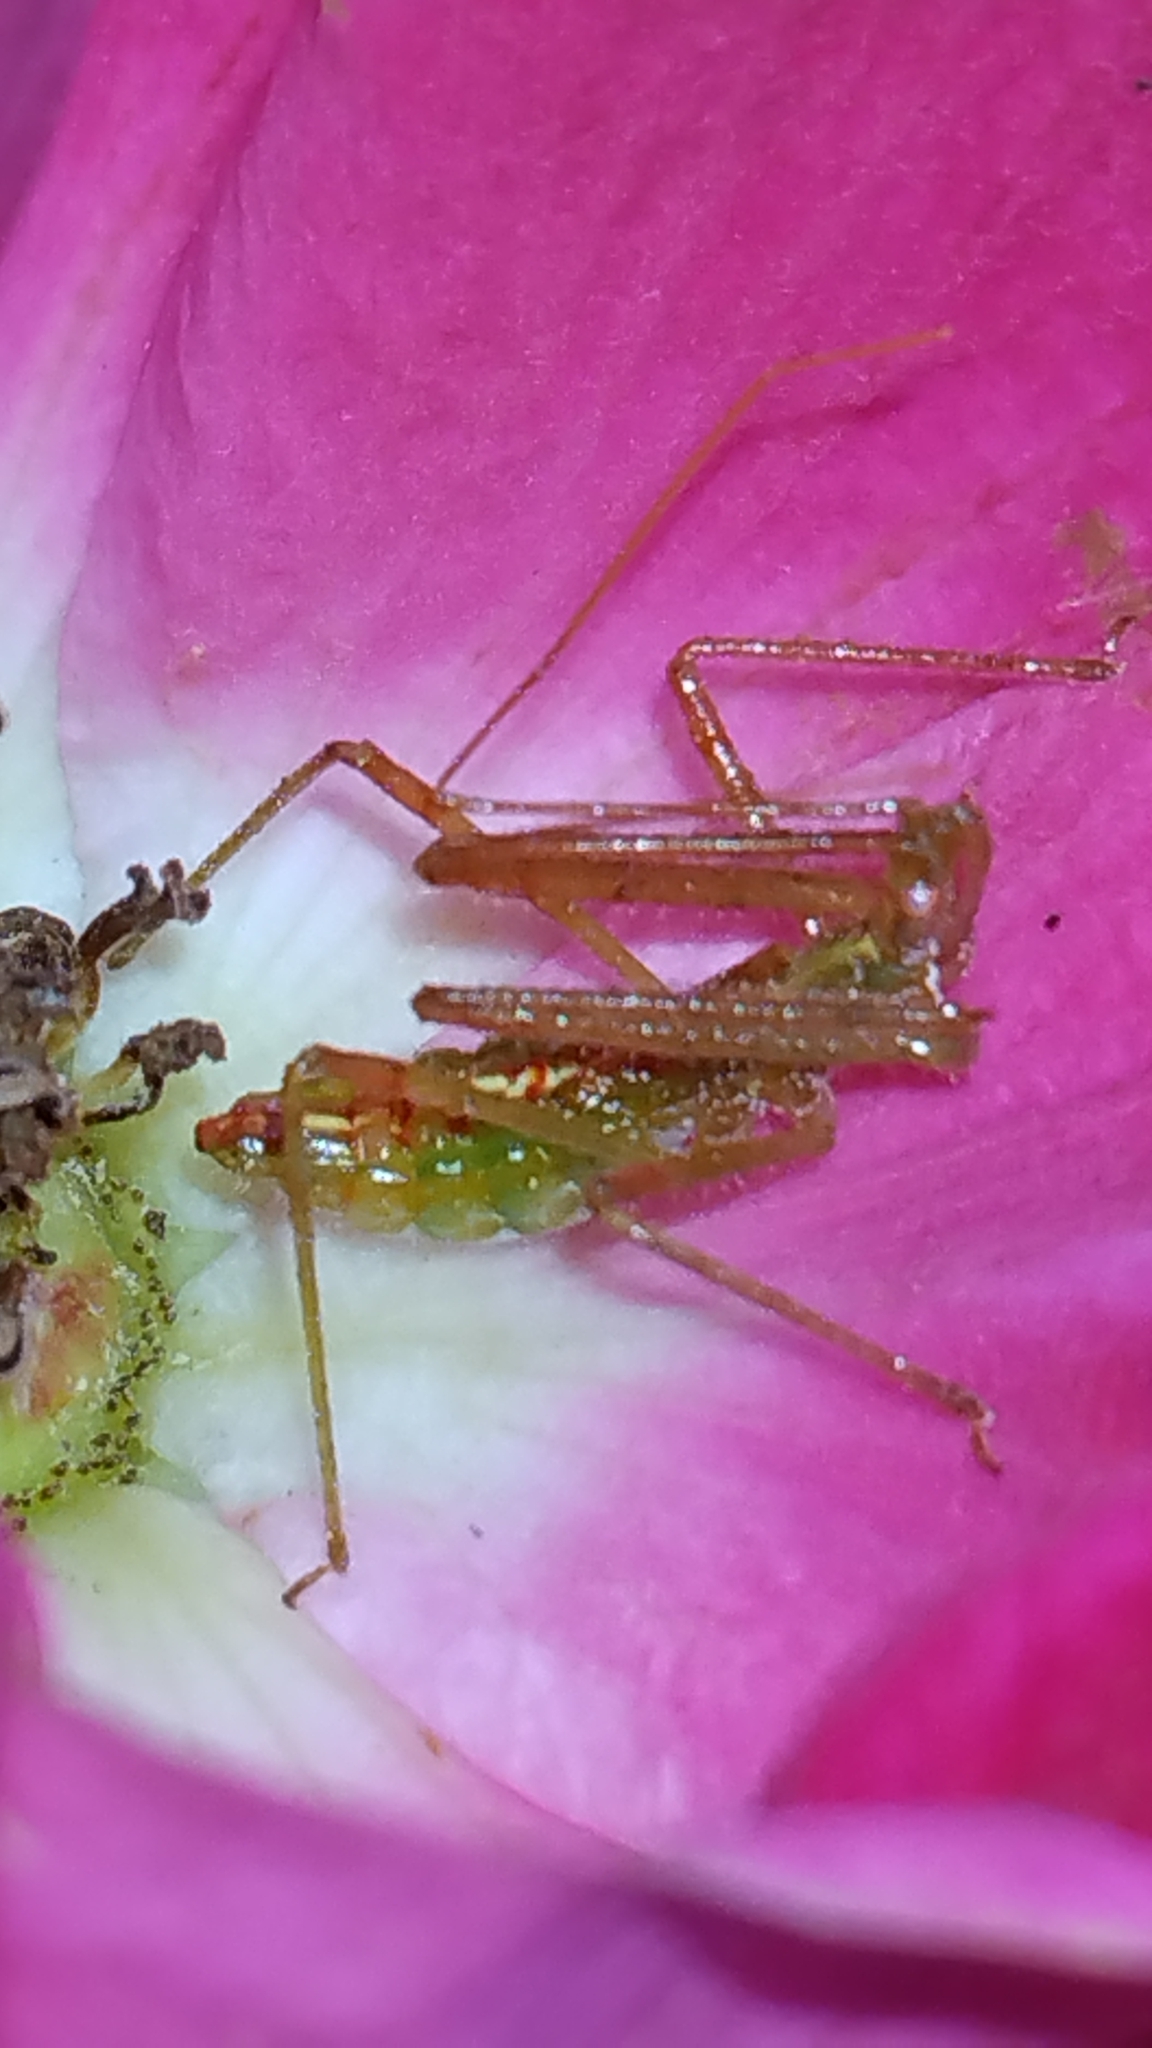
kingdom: Animalia
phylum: Arthropoda
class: Insecta
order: Hemiptera
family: Reduviidae
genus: Zelus
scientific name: Zelus luridus
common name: Pale green assassin bug
